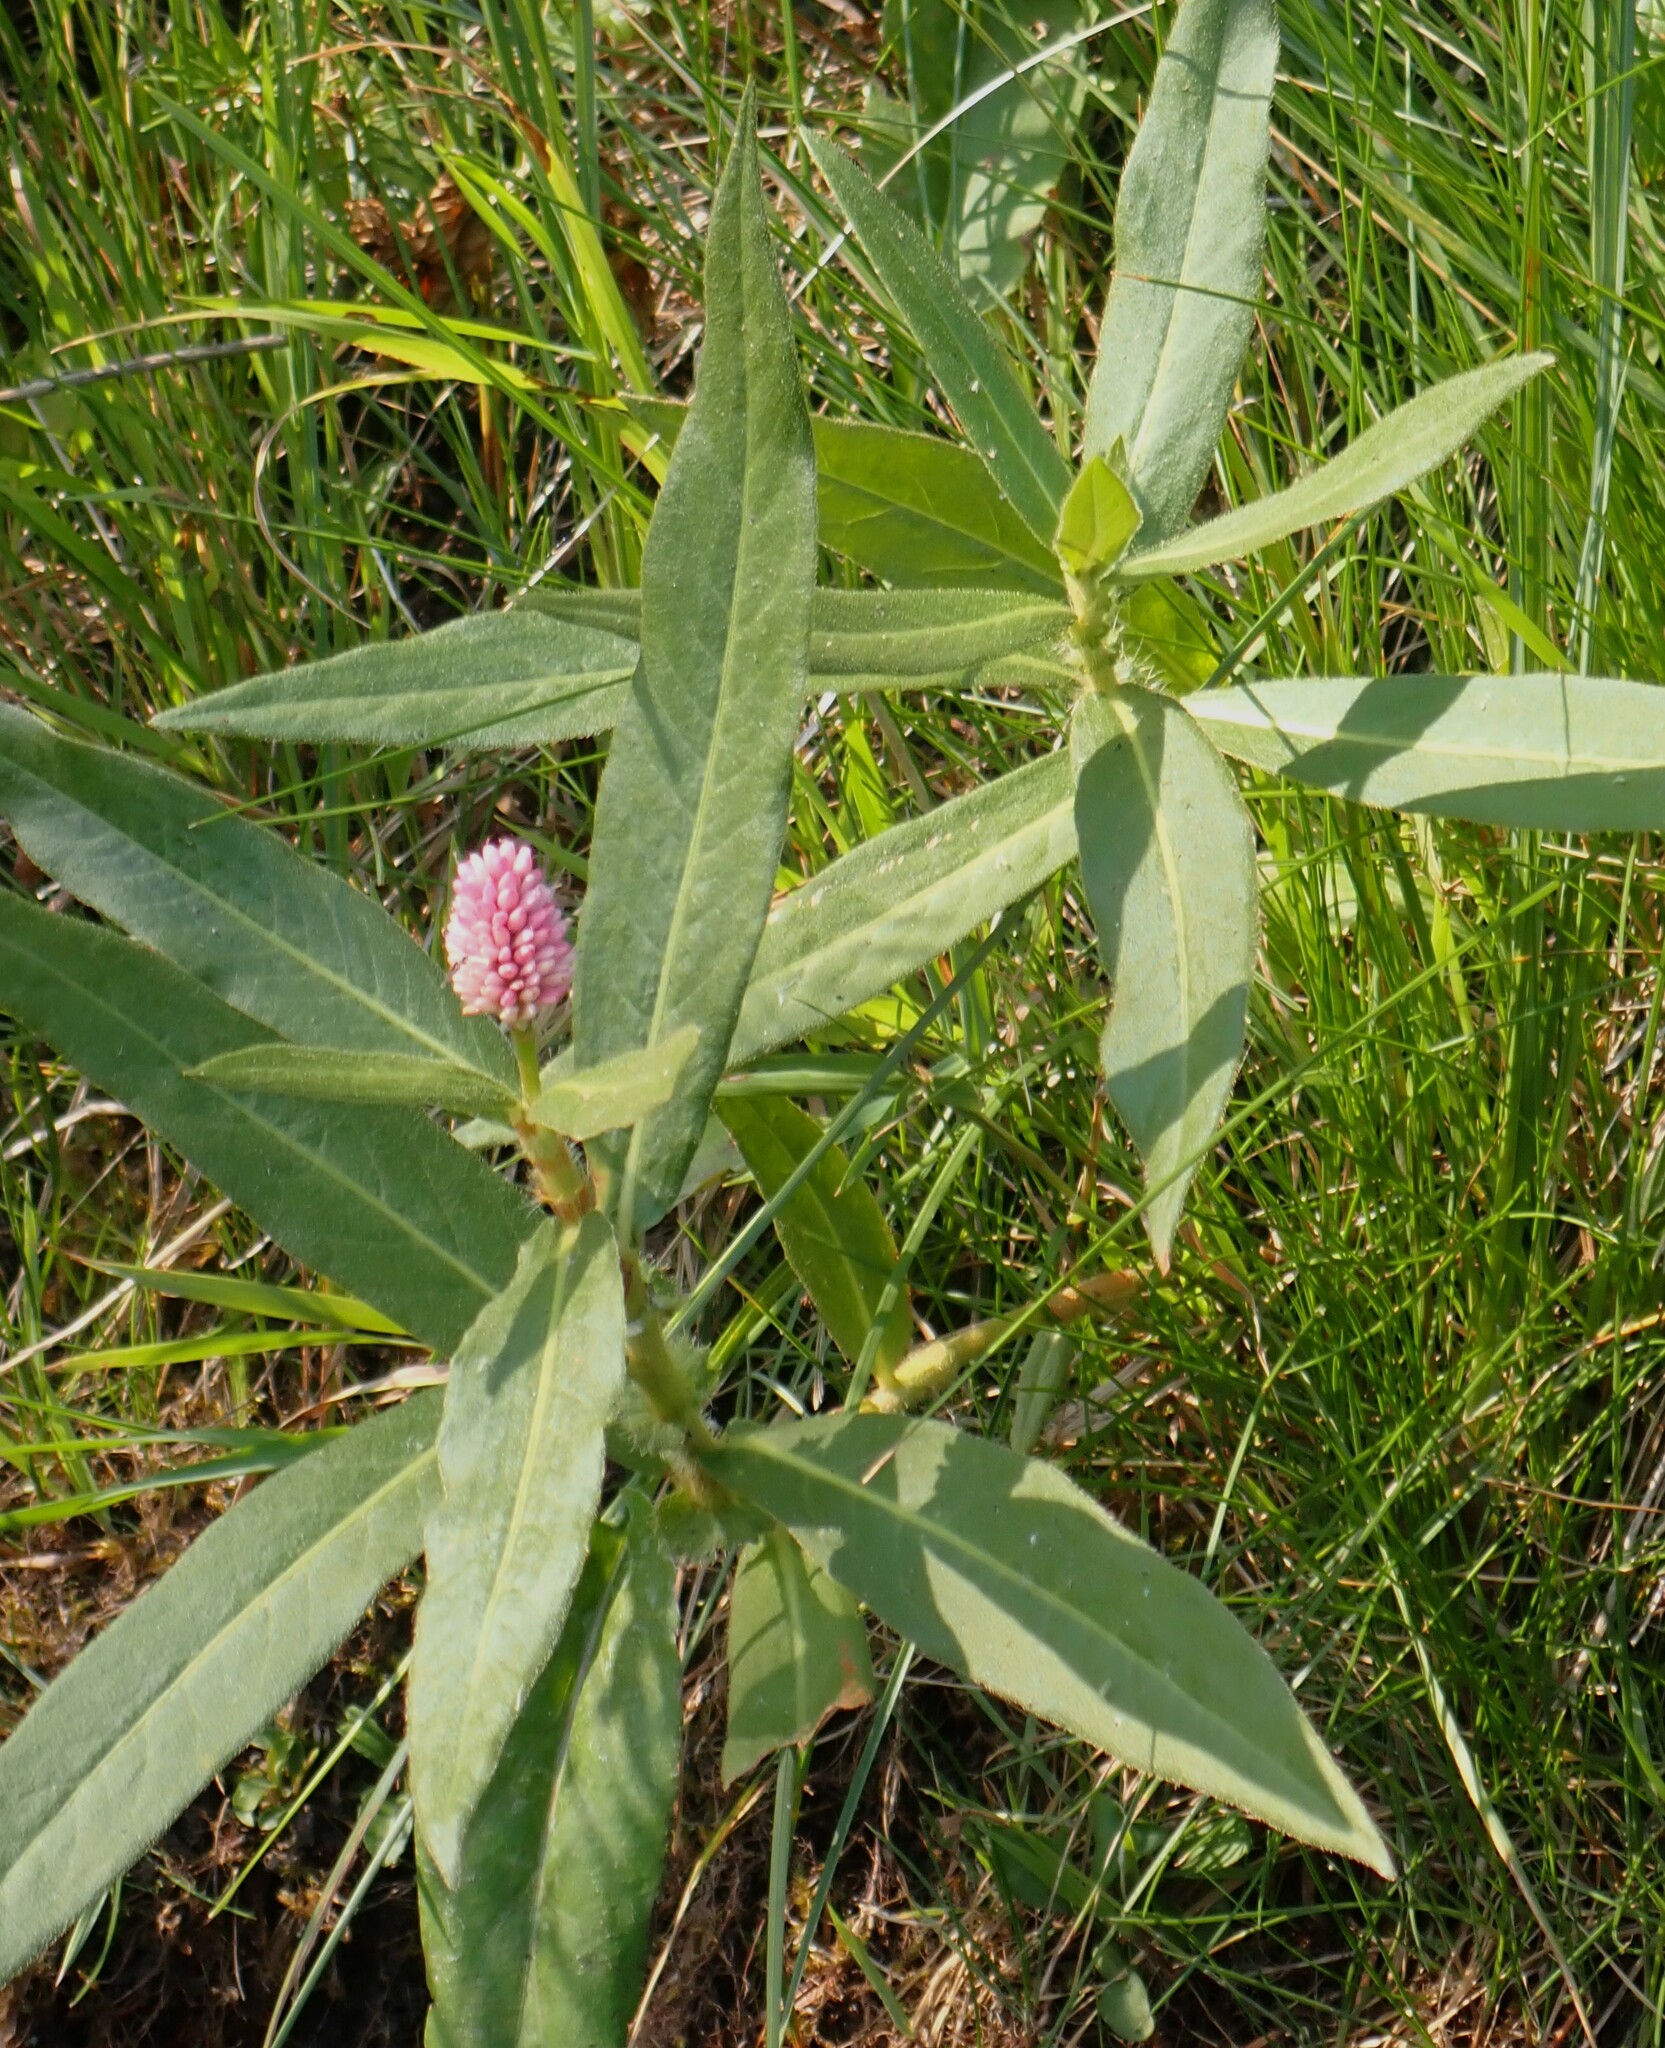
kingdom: Plantae
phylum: Tracheophyta
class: Magnoliopsida
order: Caryophyllales
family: Polygonaceae
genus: Persicaria
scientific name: Persicaria amphibia
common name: Amphibious bistort
